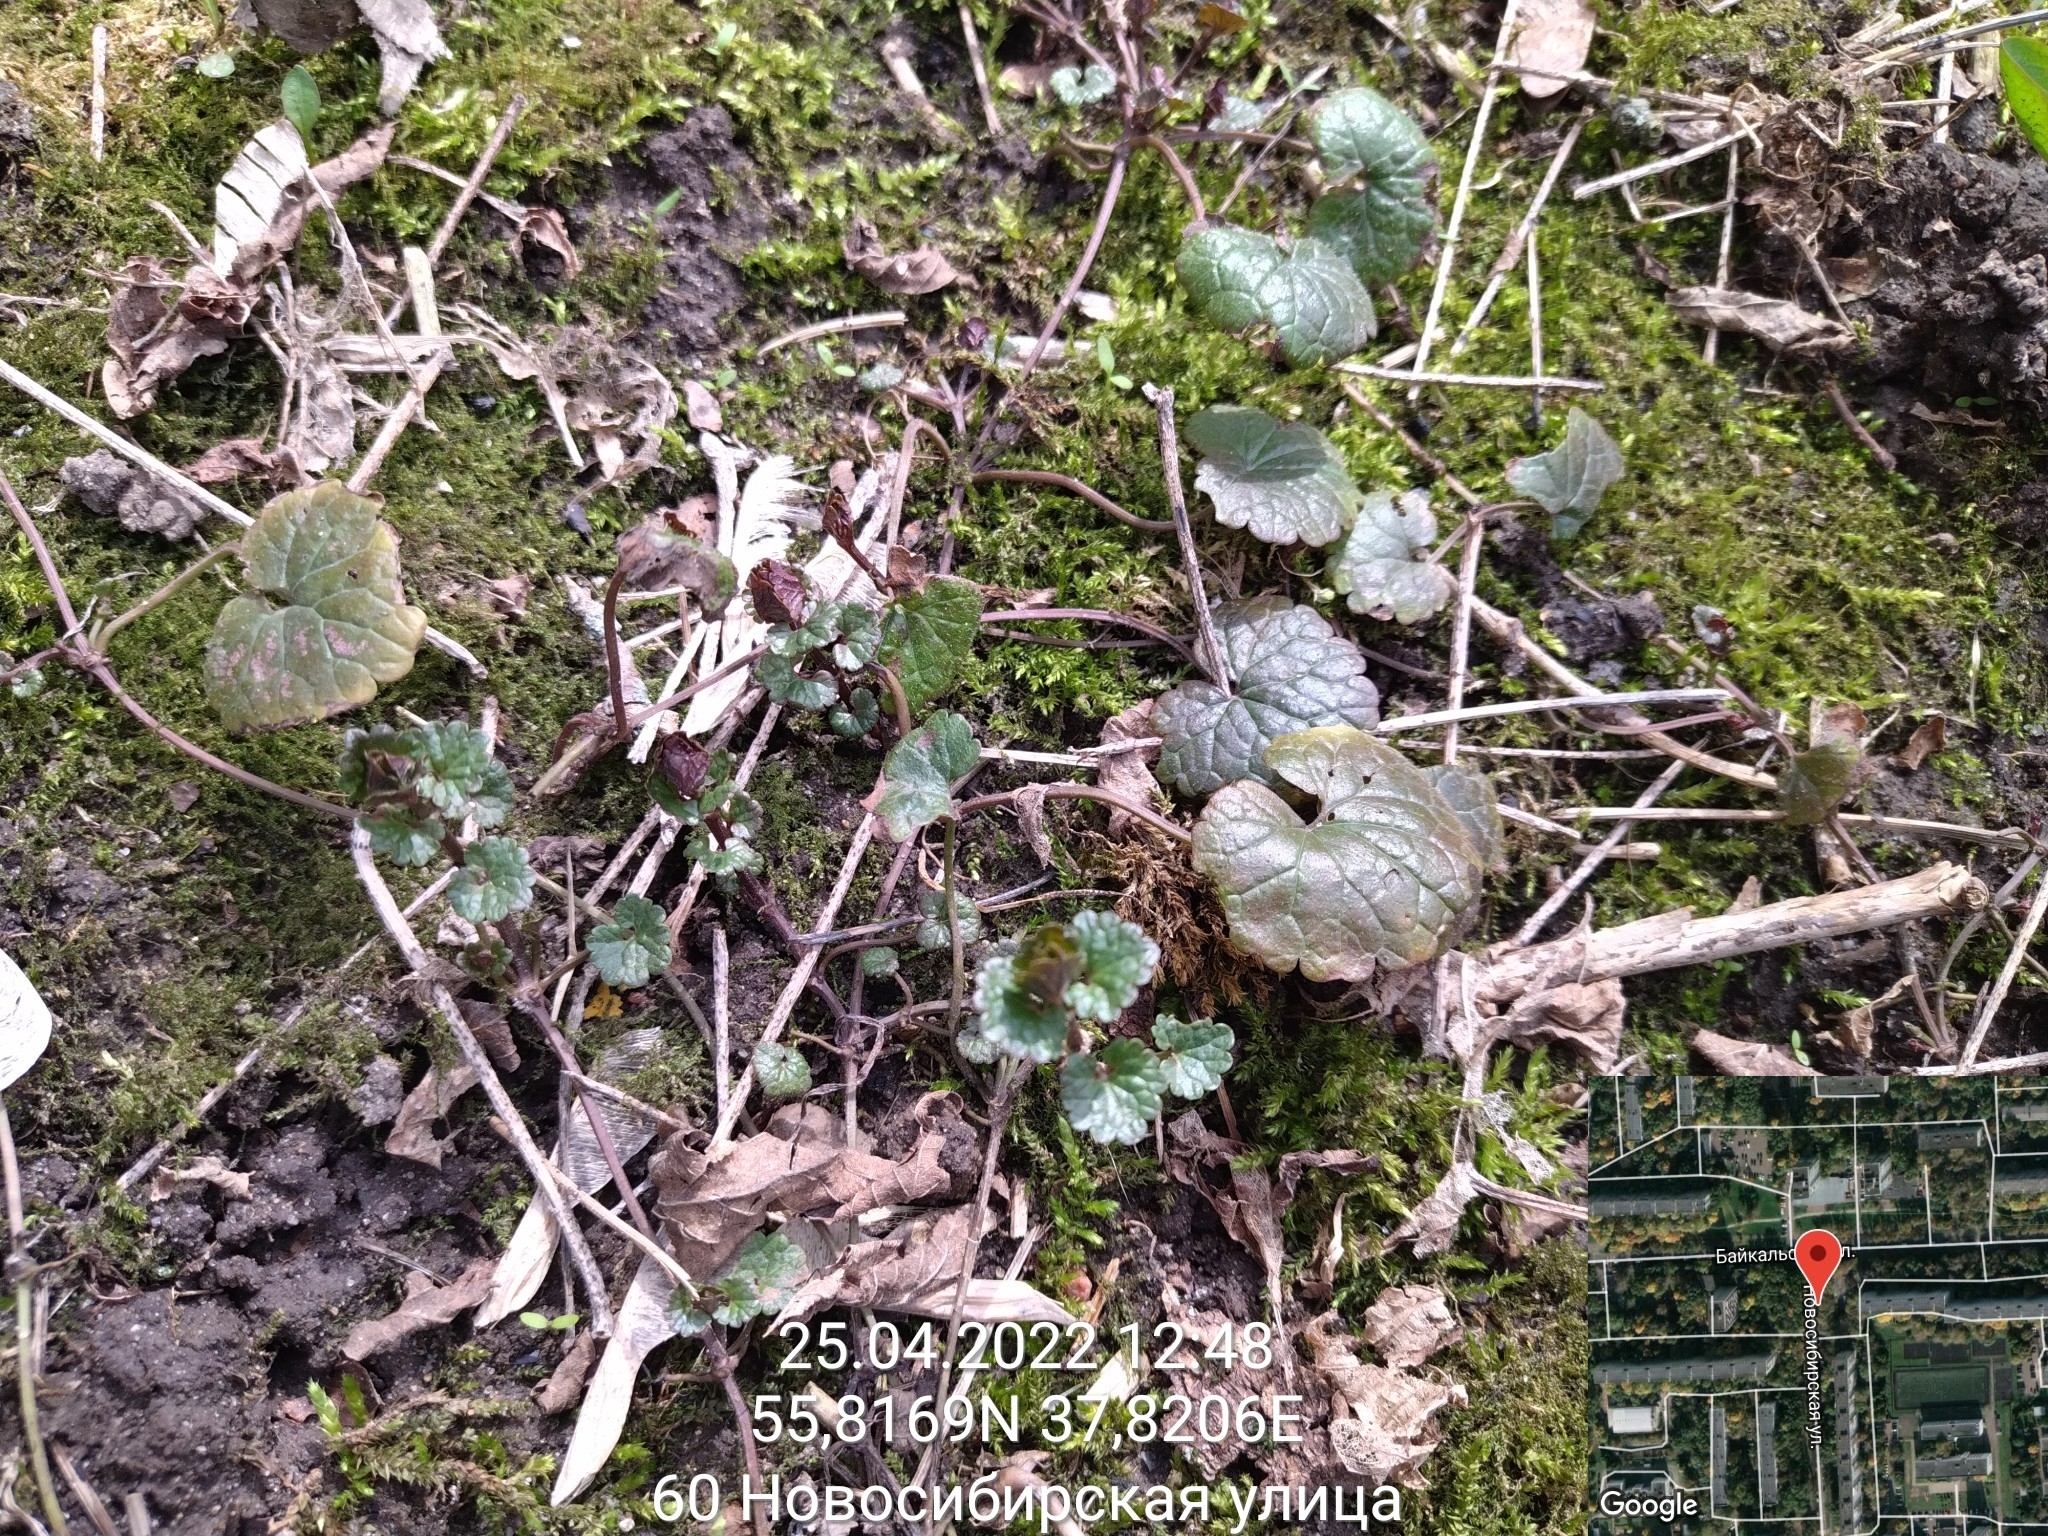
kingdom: Plantae
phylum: Tracheophyta
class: Magnoliopsida
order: Lamiales
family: Lamiaceae
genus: Glechoma
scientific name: Glechoma hederacea
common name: Ground ivy
